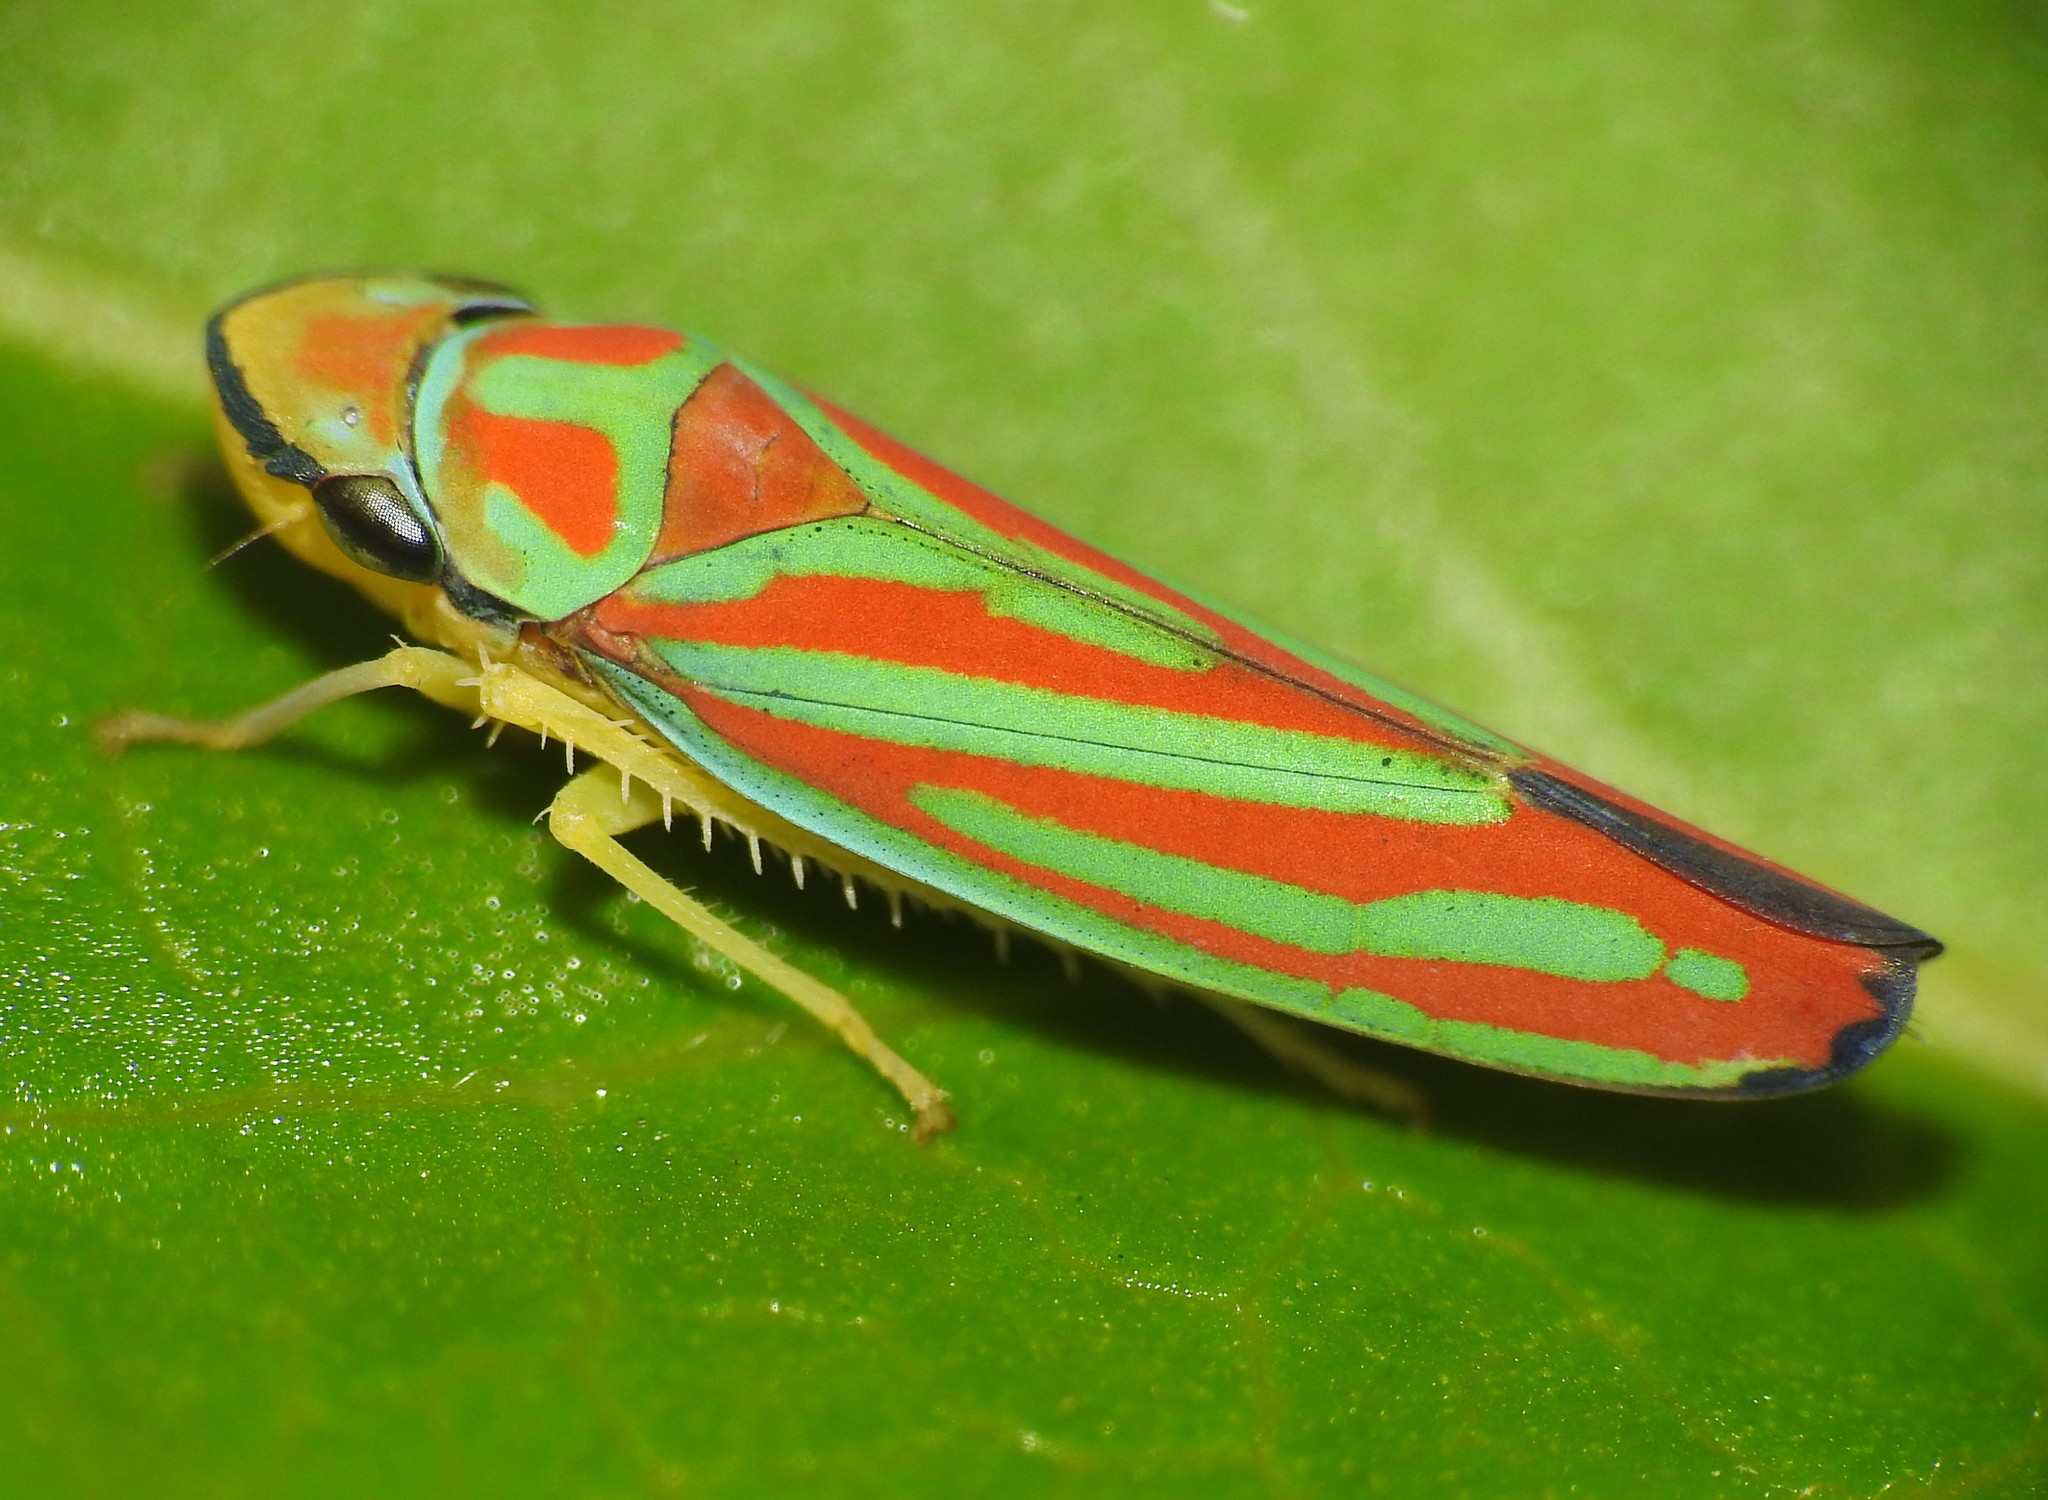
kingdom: Animalia
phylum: Arthropoda
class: Insecta
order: Hemiptera
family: Cicadellidae
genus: Graphocephala
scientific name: Graphocephala coccinea
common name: Candy-striped leafhopper
